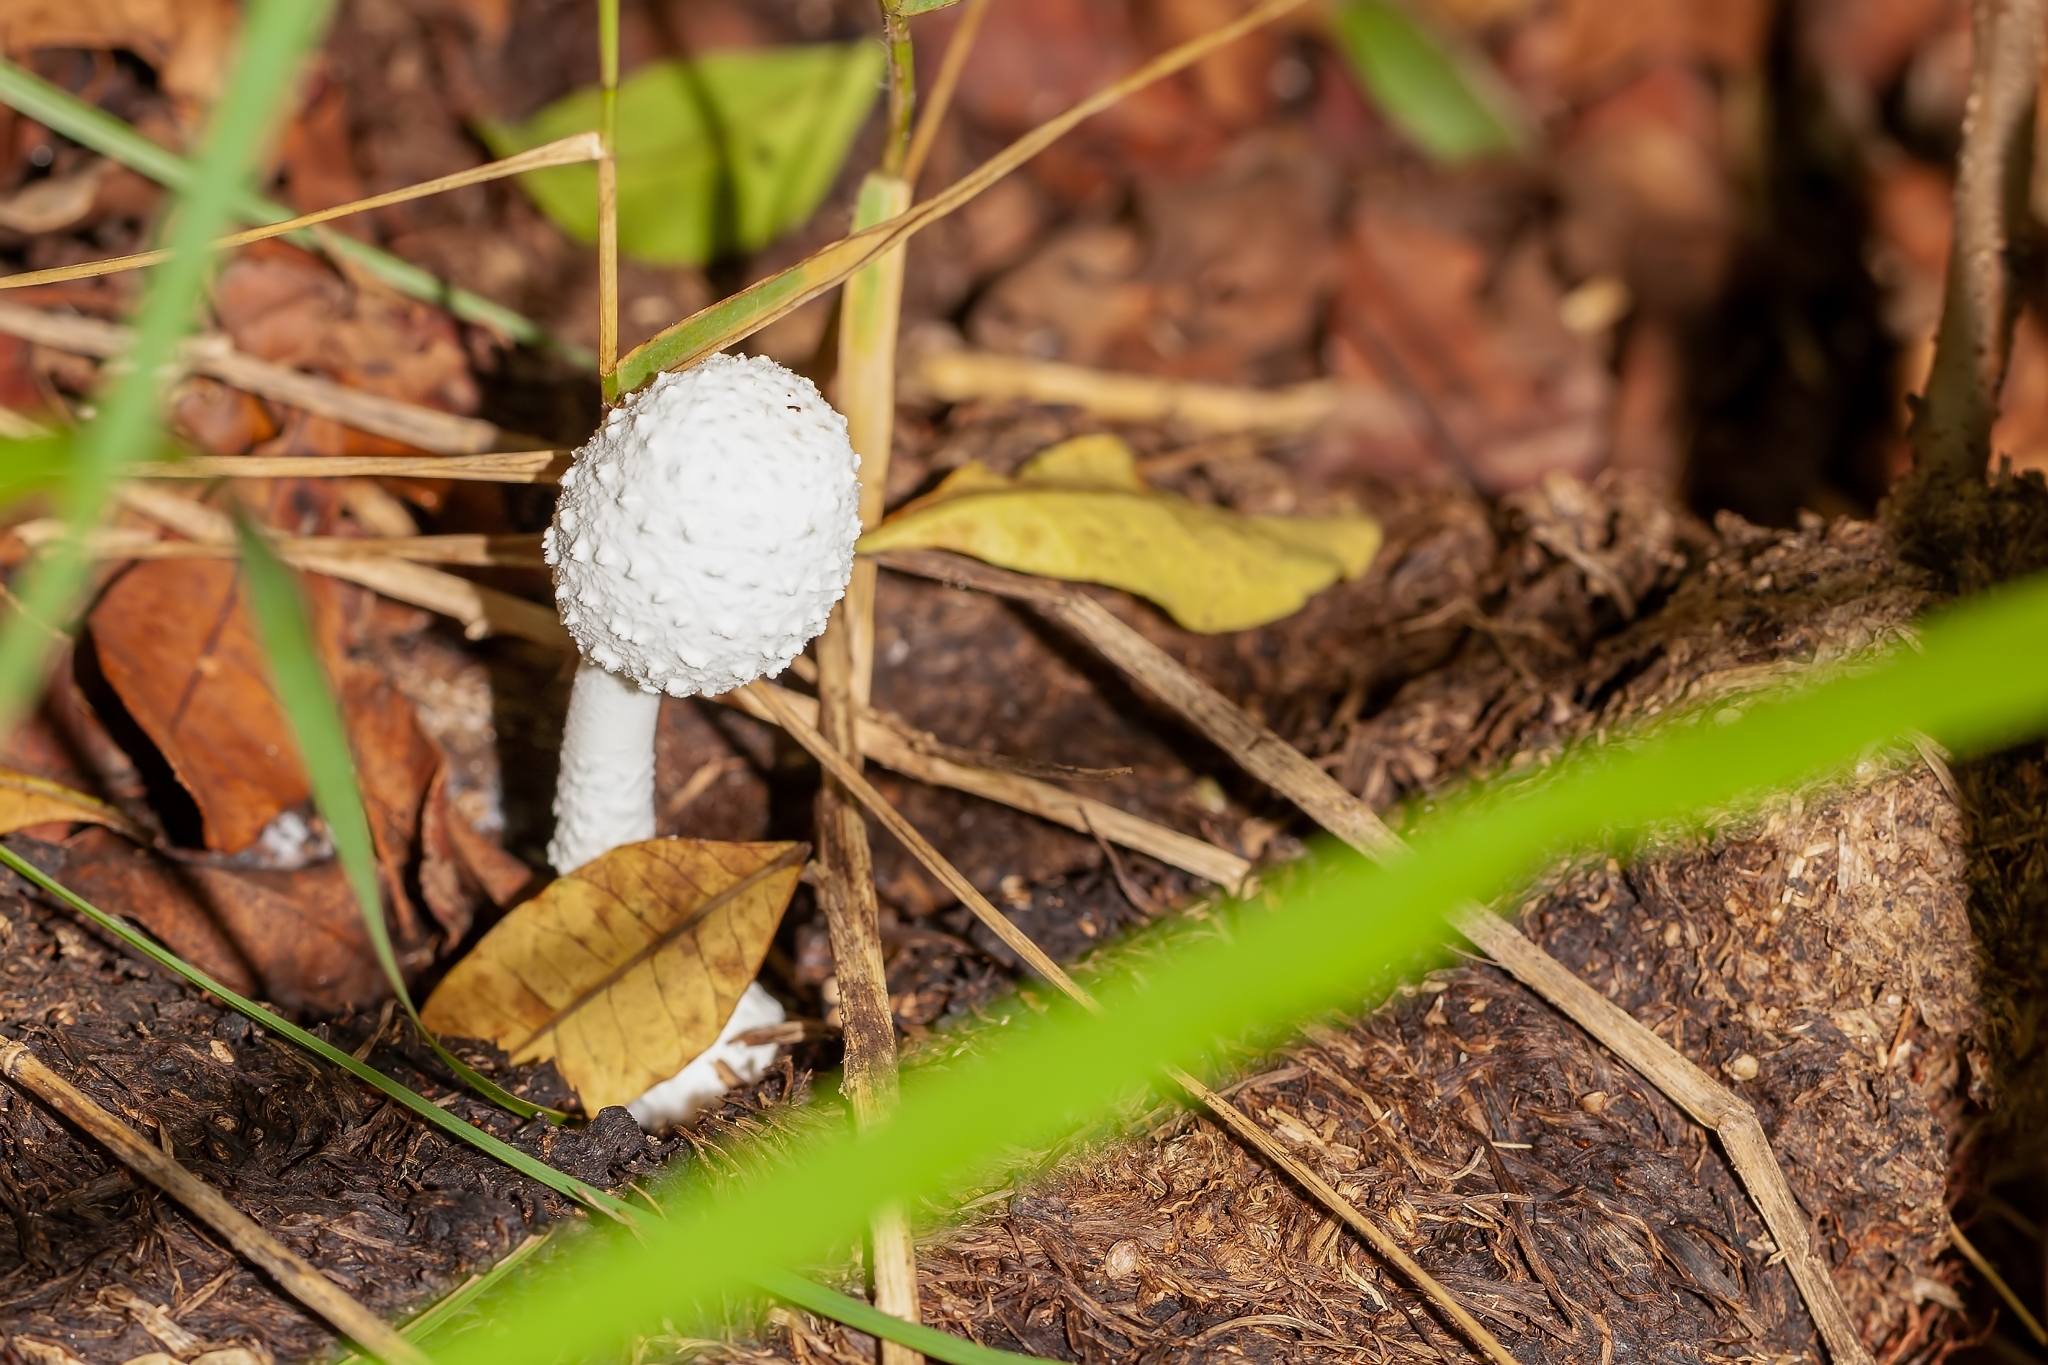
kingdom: Fungi
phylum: Basidiomycota
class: Agaricomycetes
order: Agaricales
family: Agaricaceae
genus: Leucocoprinus
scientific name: Leucocoprinus cretaceus
